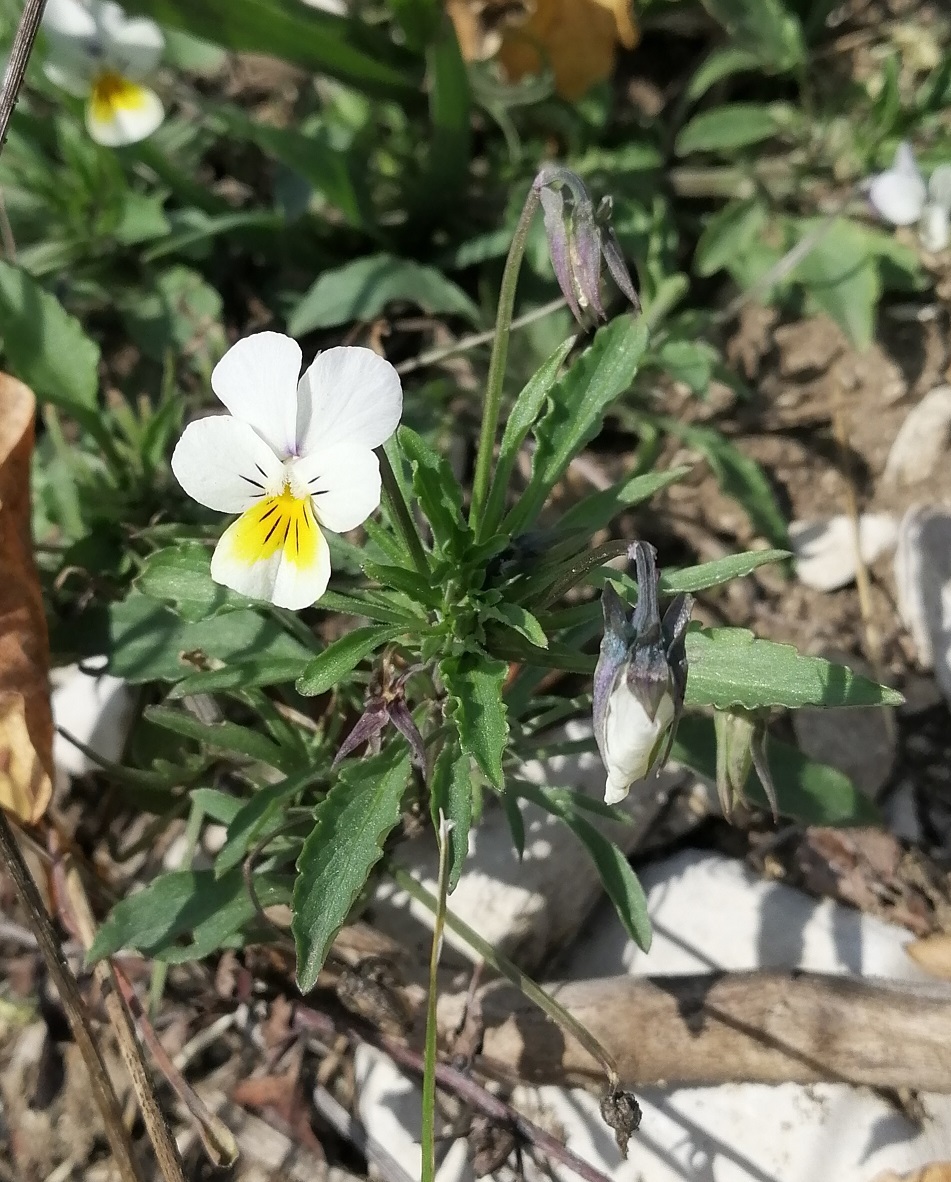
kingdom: Plantae
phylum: Tracheophyta
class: Magnoliopsida
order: Malpighiales
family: Violaceae
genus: Viola
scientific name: Viola arvensis
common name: Field pansy
